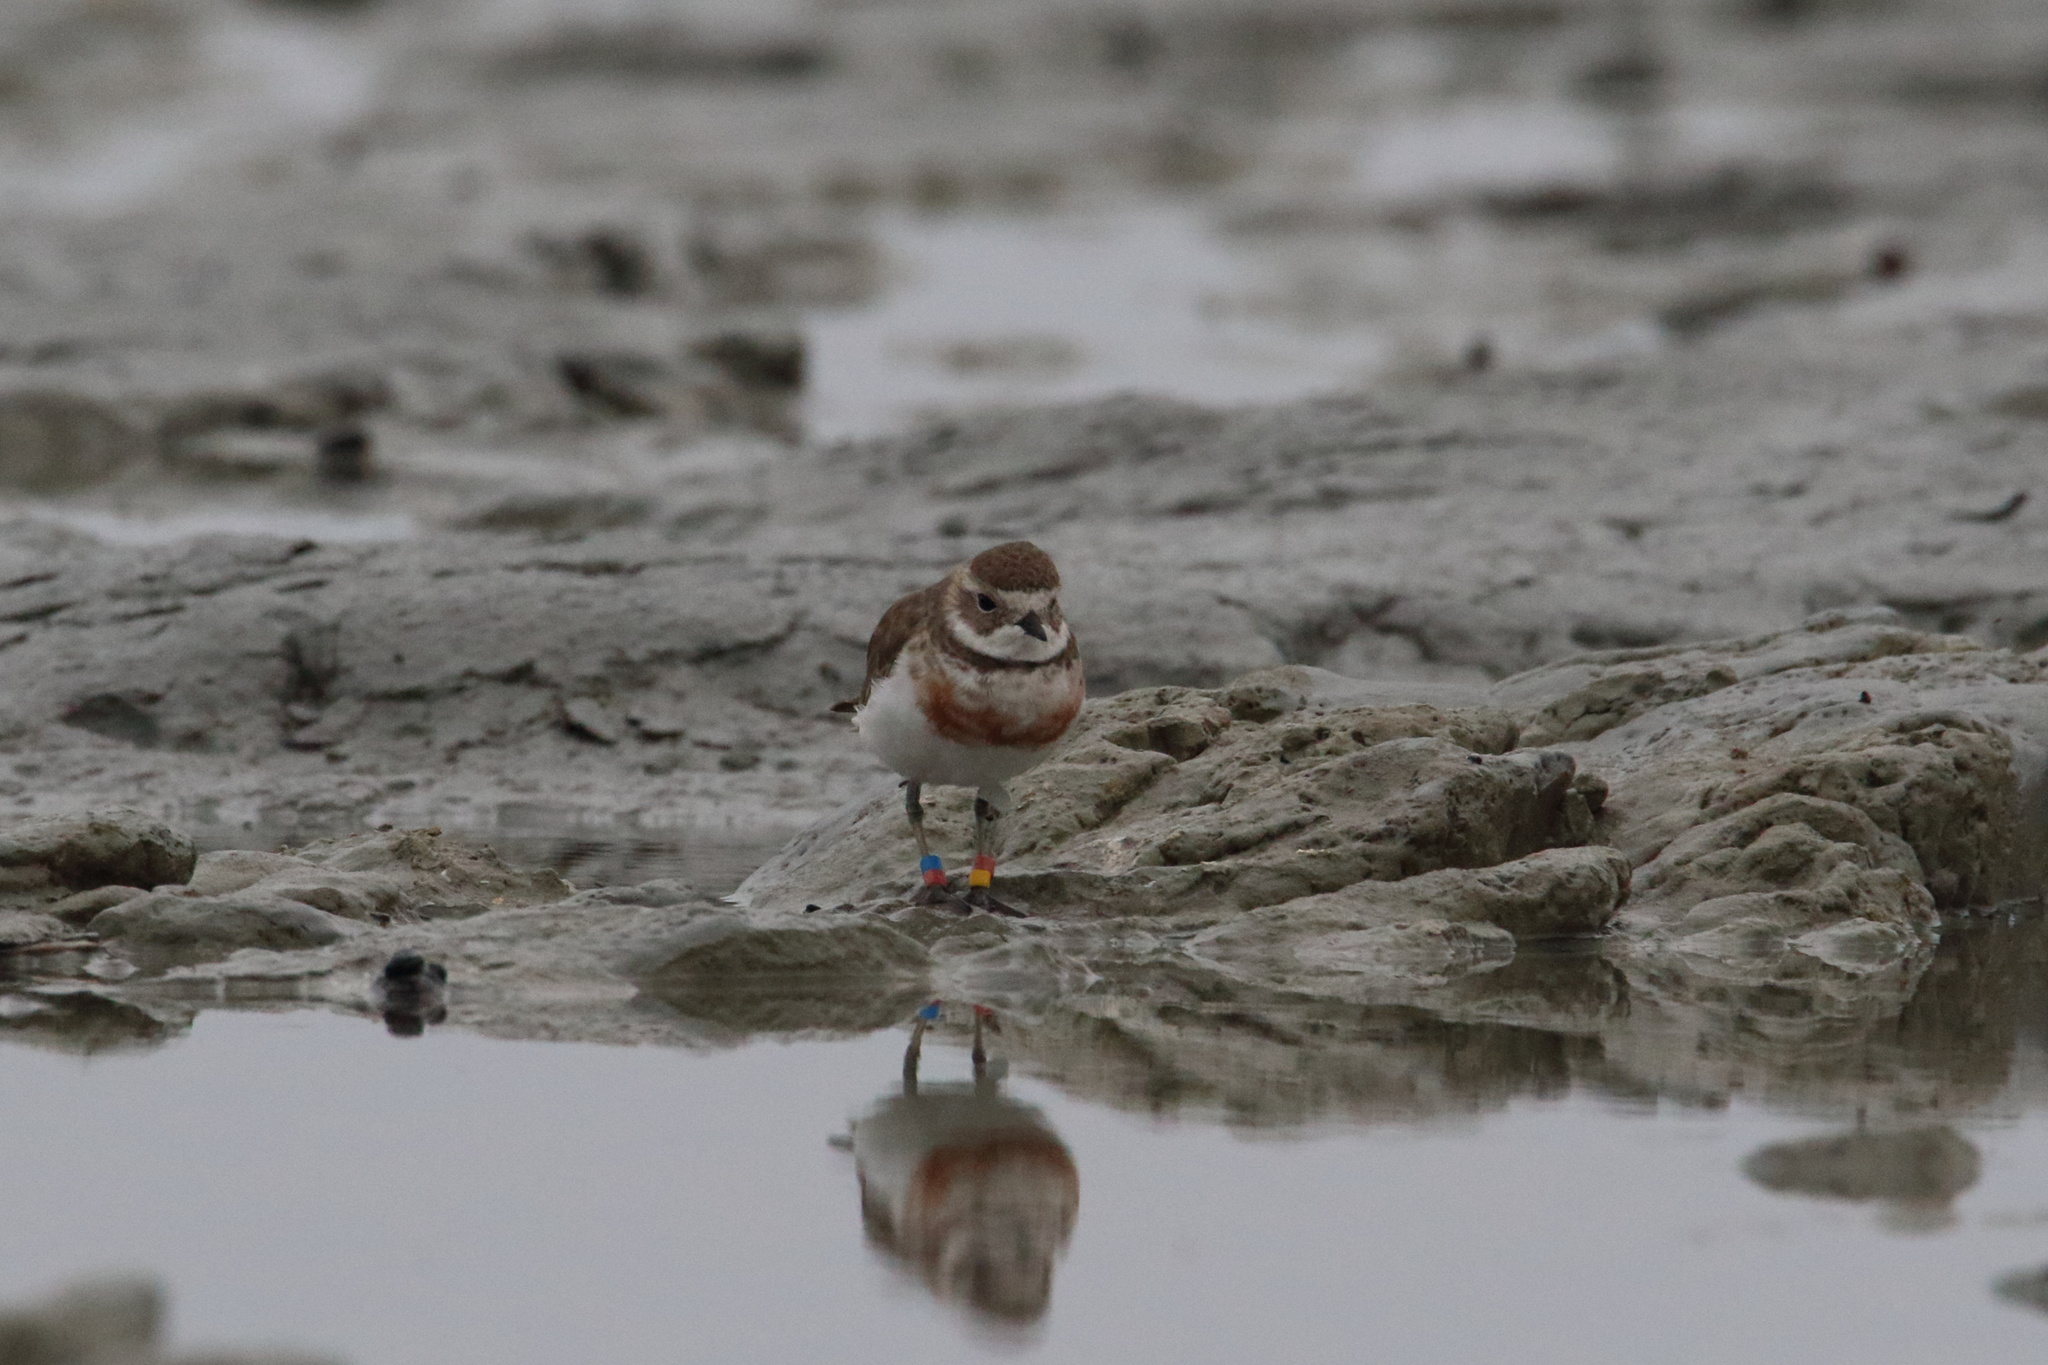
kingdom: Animalia
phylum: Chordata
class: Aves
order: Charadriiformes
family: Charadriidae
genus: Anarhynchus
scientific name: Anarhynchus
